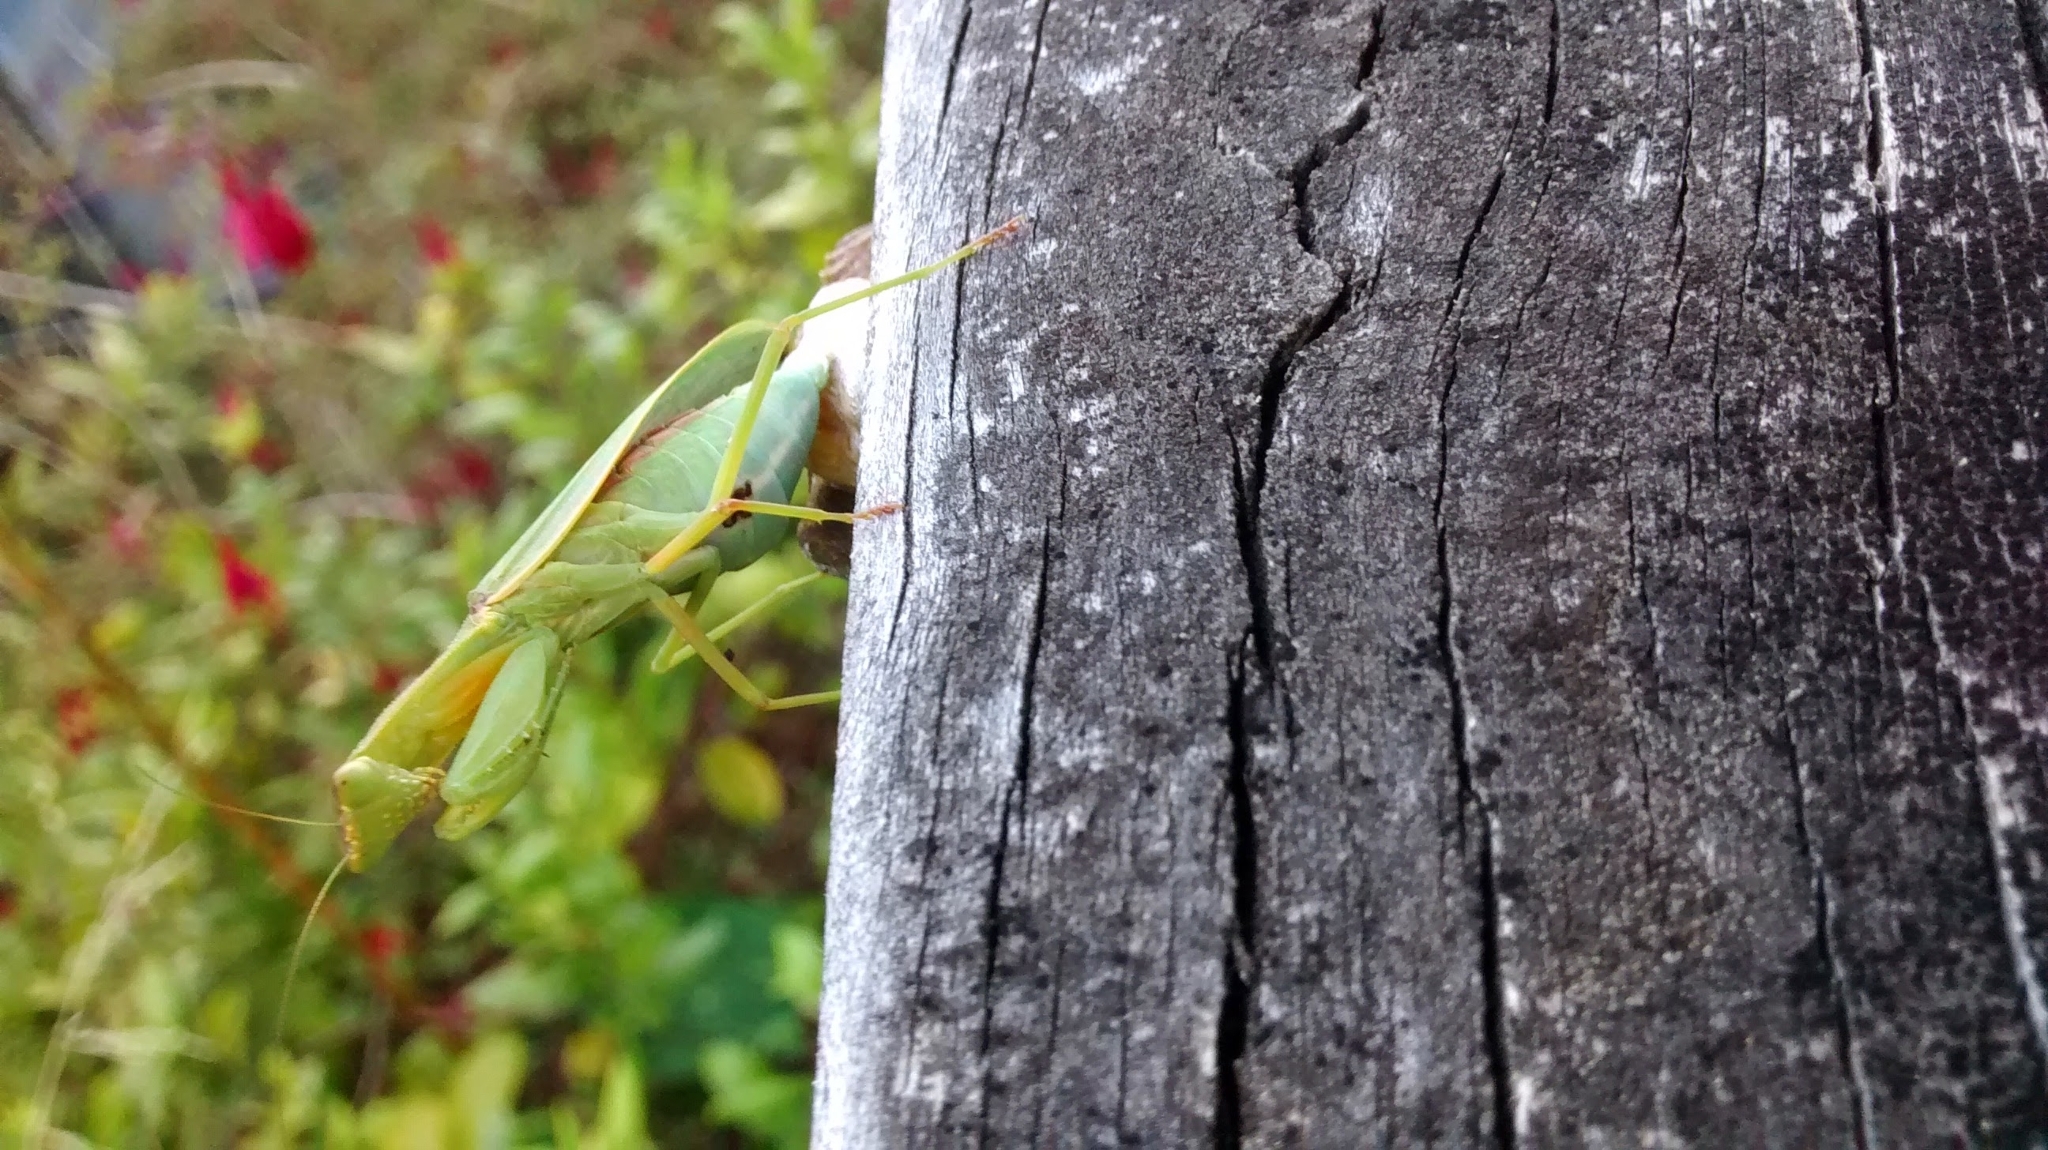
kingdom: Animalia
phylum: Arthropoda
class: Insecta
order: Mantodea
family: Mantidae
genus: Orthodera
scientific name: Orthodera novaezealandiae
